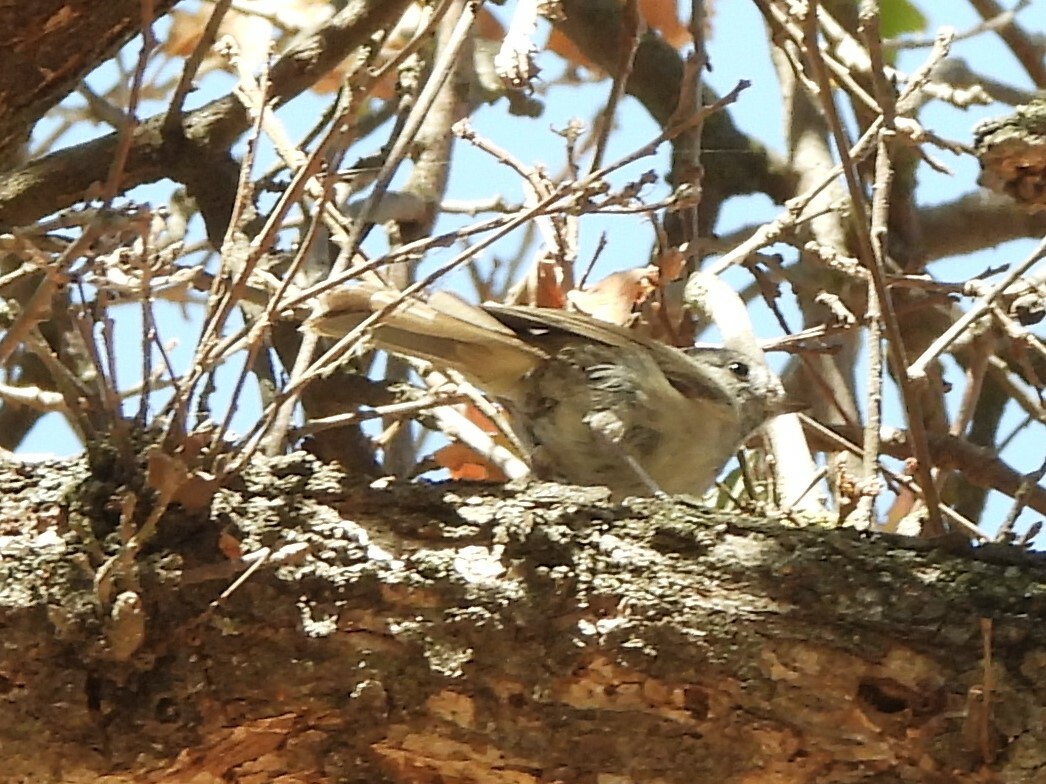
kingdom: Animalia
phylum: Chordata
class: Aves
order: Passeriformes
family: Paridae
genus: Baeolophus
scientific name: Baeolophus inornatus
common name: Oak titmouse
